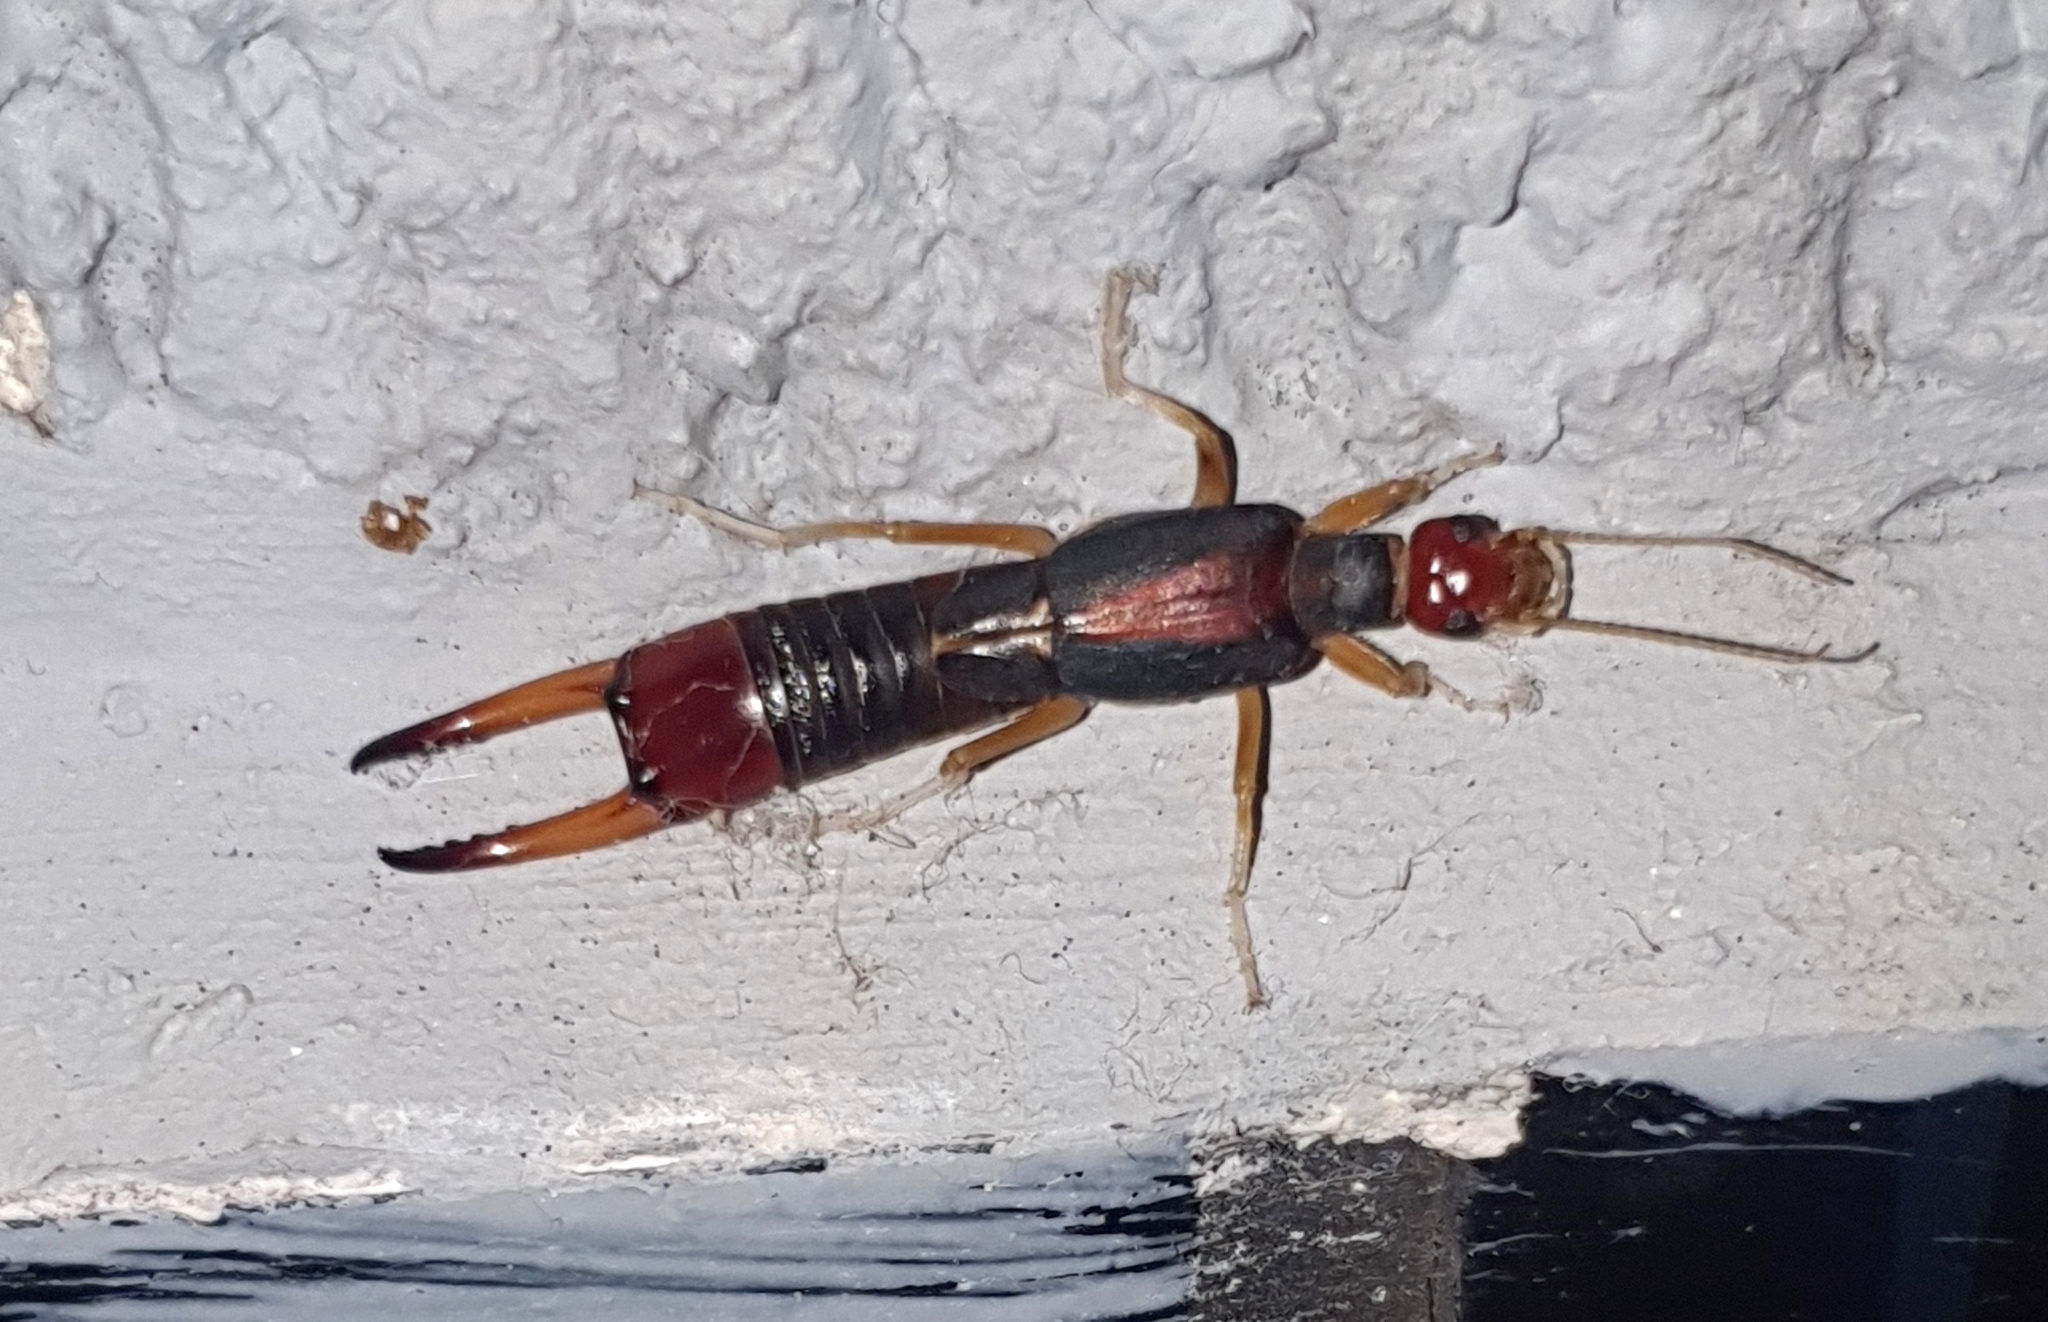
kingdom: Animalia
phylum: Arthropoda
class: Insecta
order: Dermaptera
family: Labiduridae
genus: Labidura
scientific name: Labidura riparia
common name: Striped earwig
